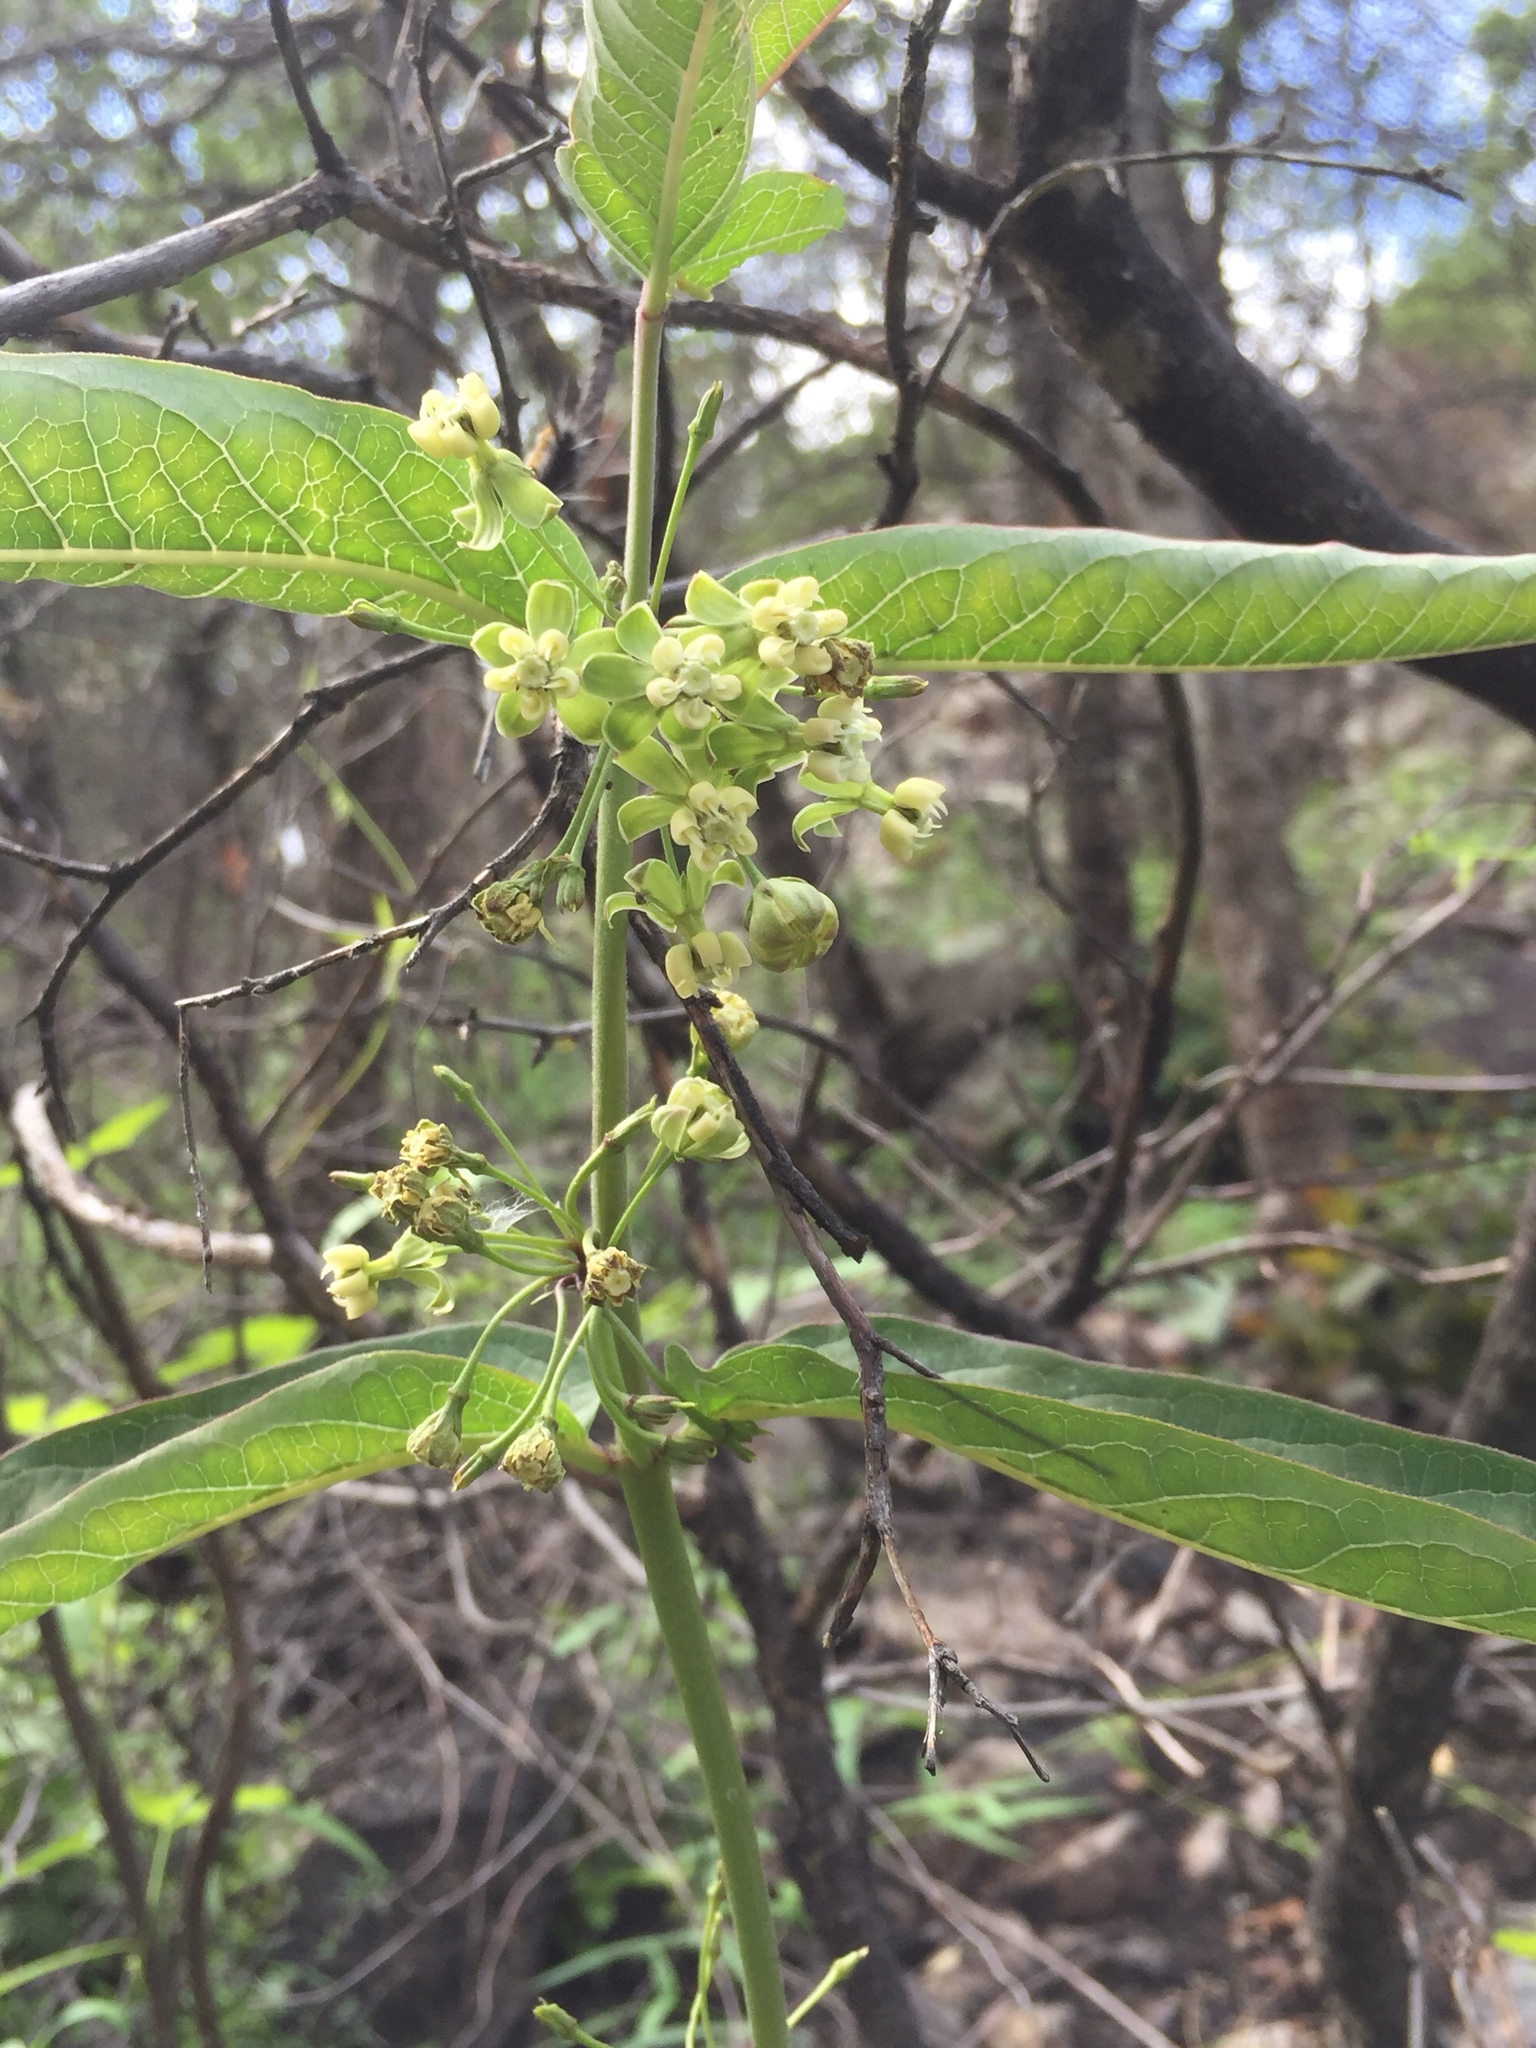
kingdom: Plantae
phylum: Tracheophyta
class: Magnoliopsida
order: Gentianales
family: Apocynaceae
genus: Asclepias
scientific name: Asclepias ovata
